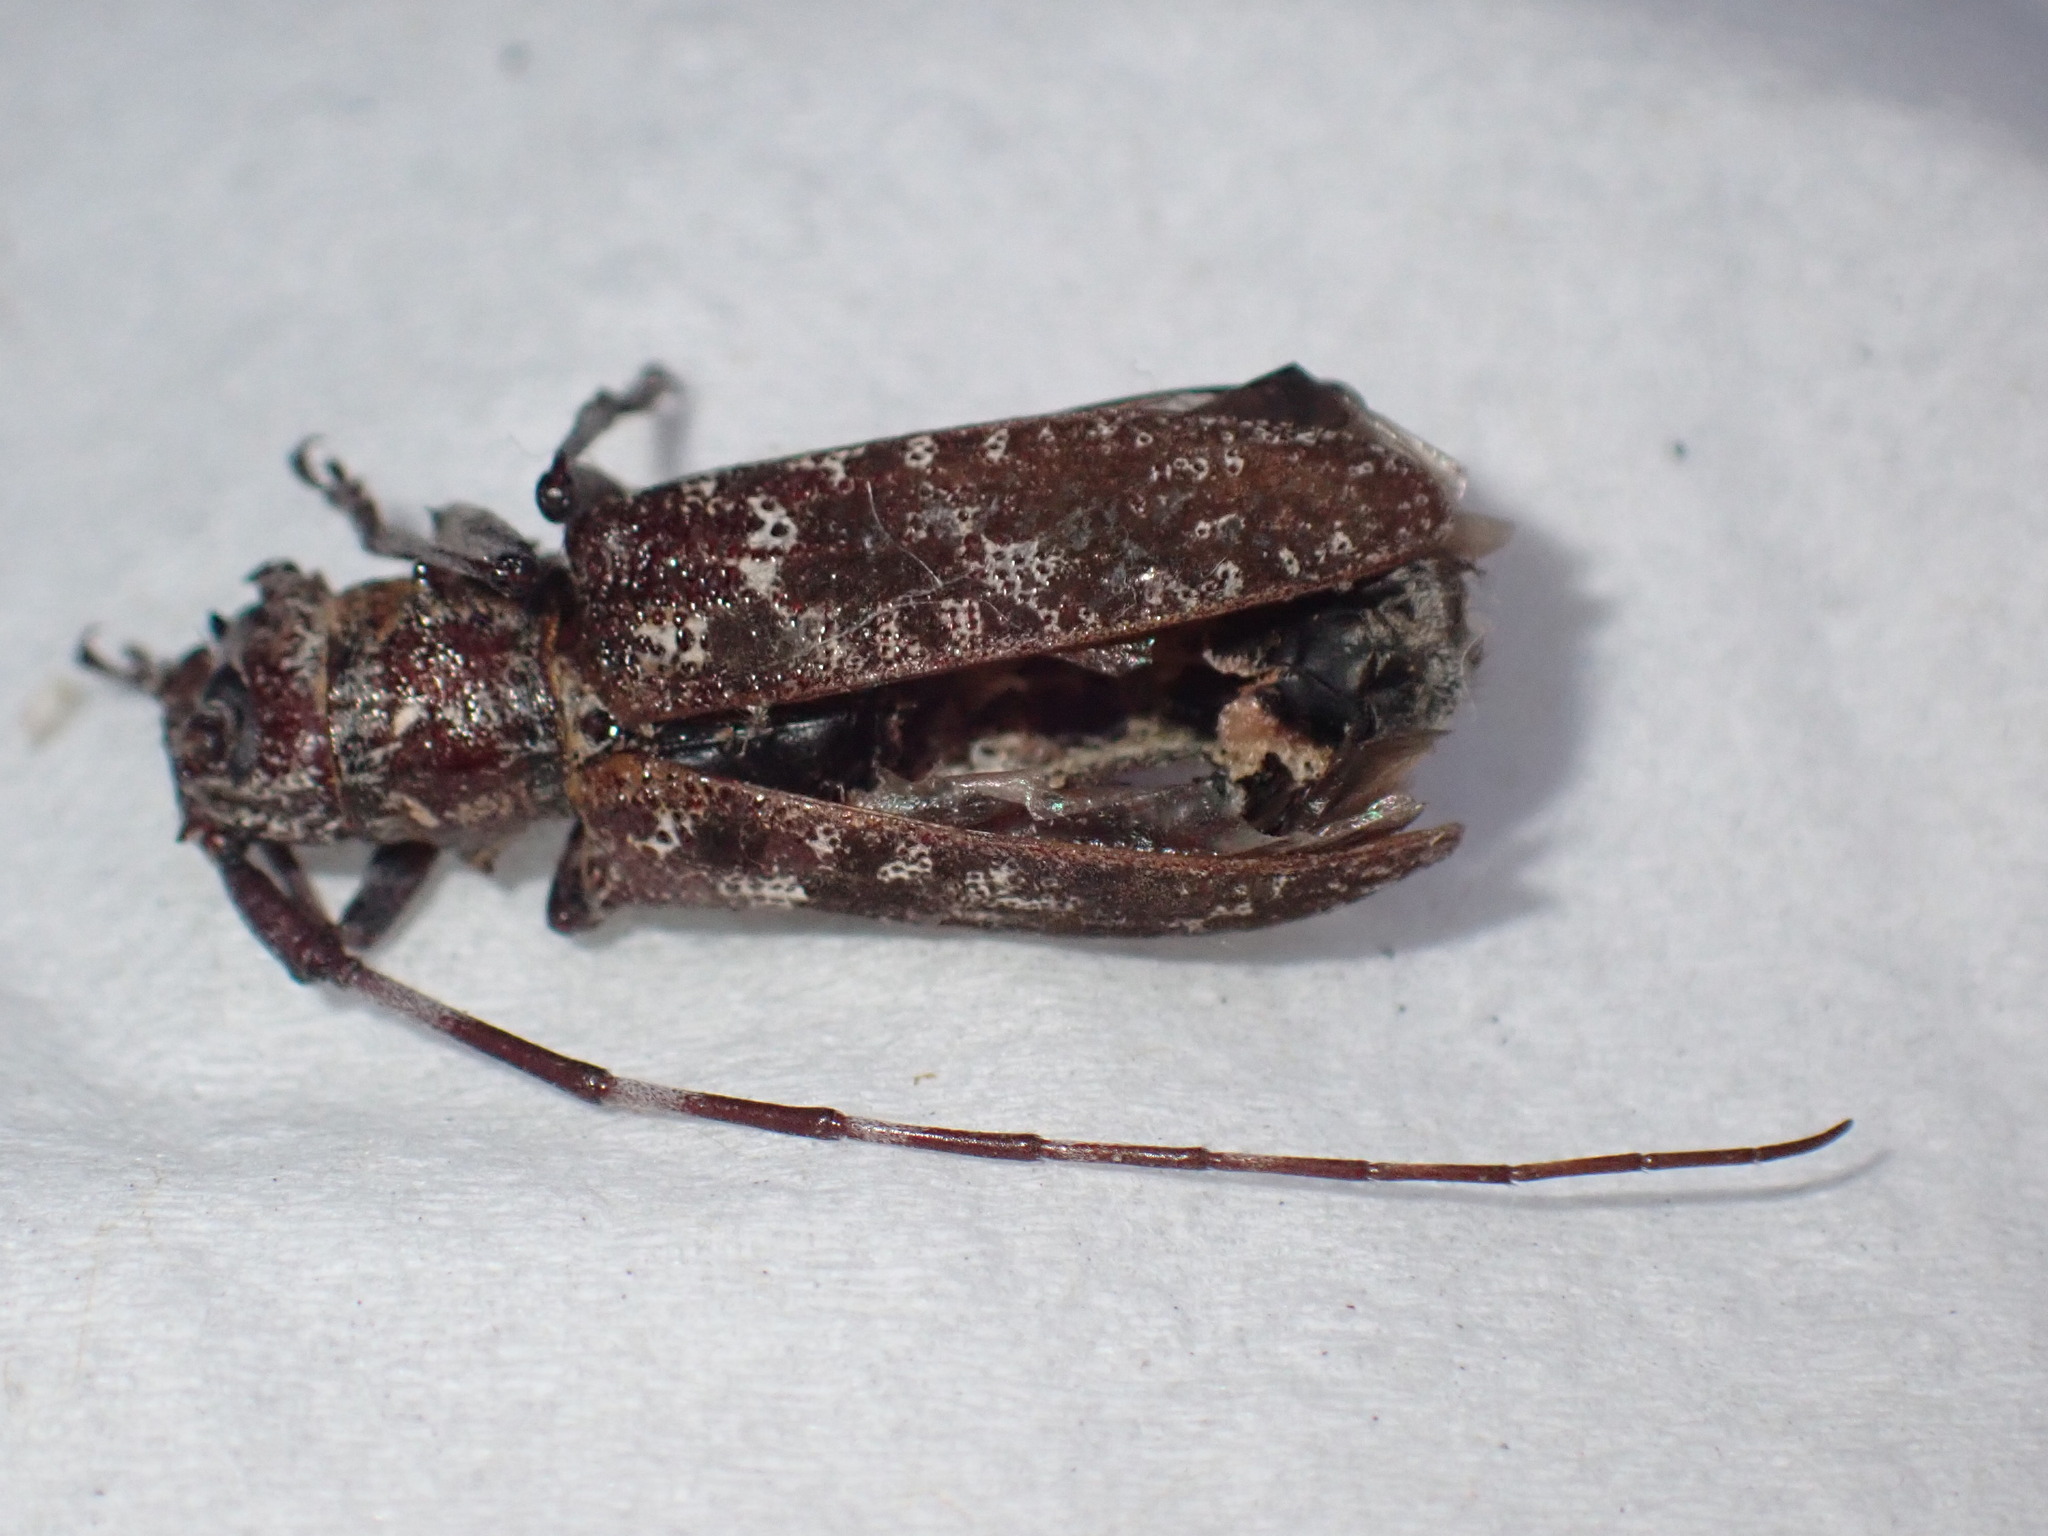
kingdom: Animalia
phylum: Arthropoda
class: Insecta
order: Coleoptera
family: Cerambycidae
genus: Monochamus
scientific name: Monochamus obtusus
